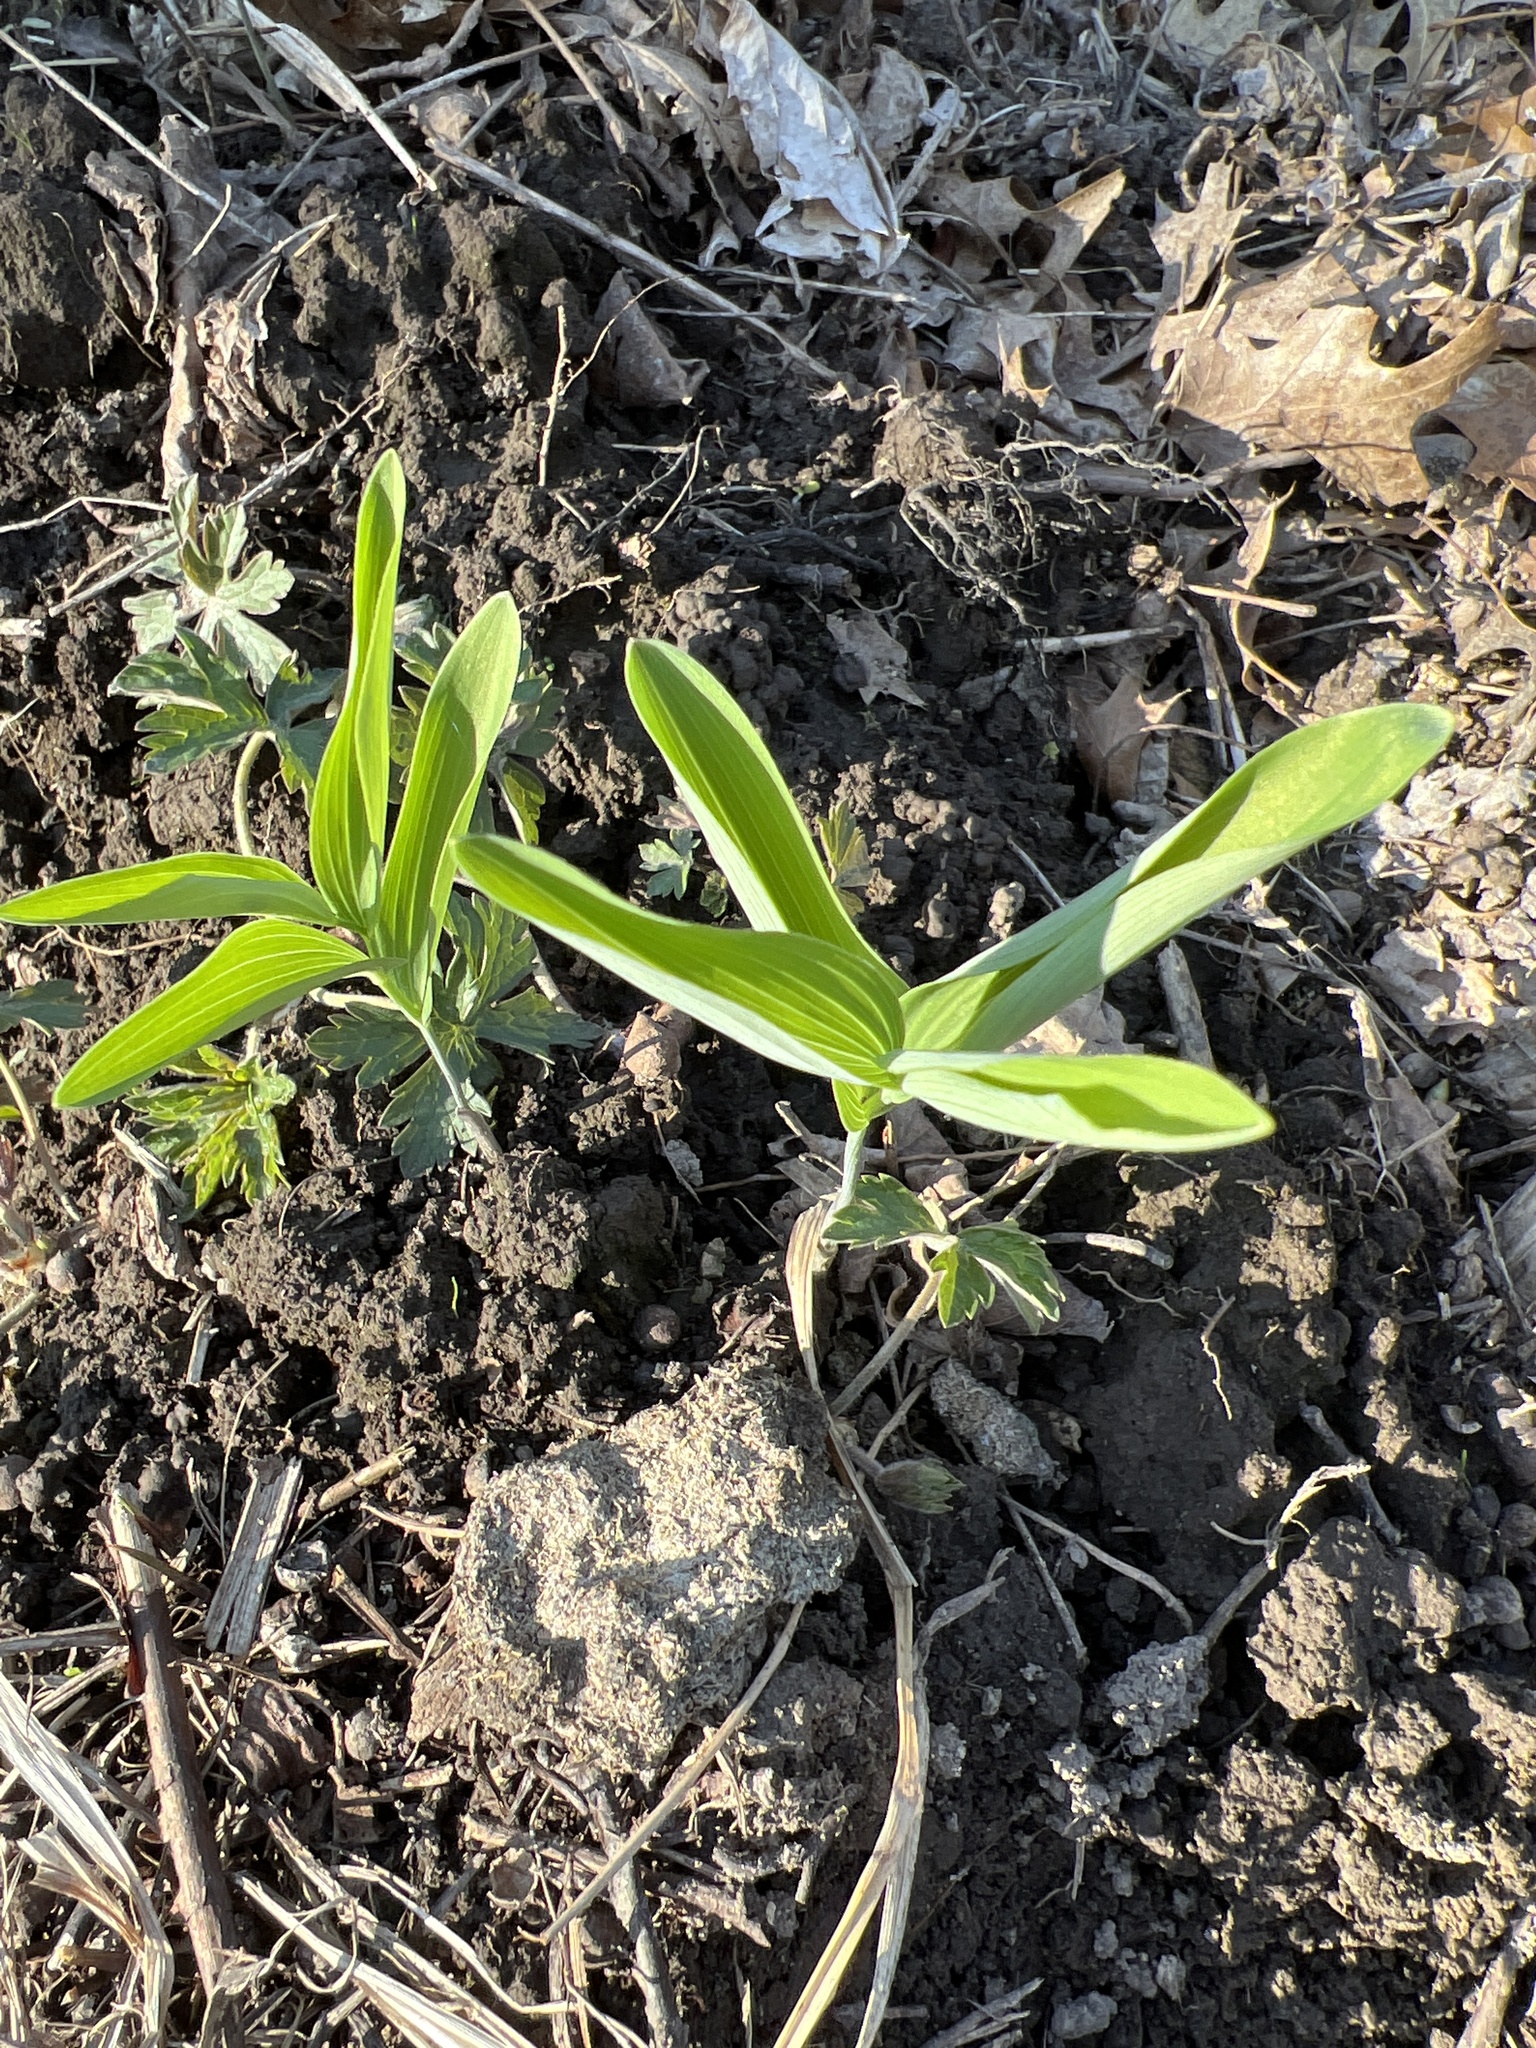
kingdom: Plantae
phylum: Tracheophyta
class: Liliopsida
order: Asparagales
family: Asparagaceae
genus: Polygonatum
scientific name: Polygonatum biflorum
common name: American solomon's-seal
